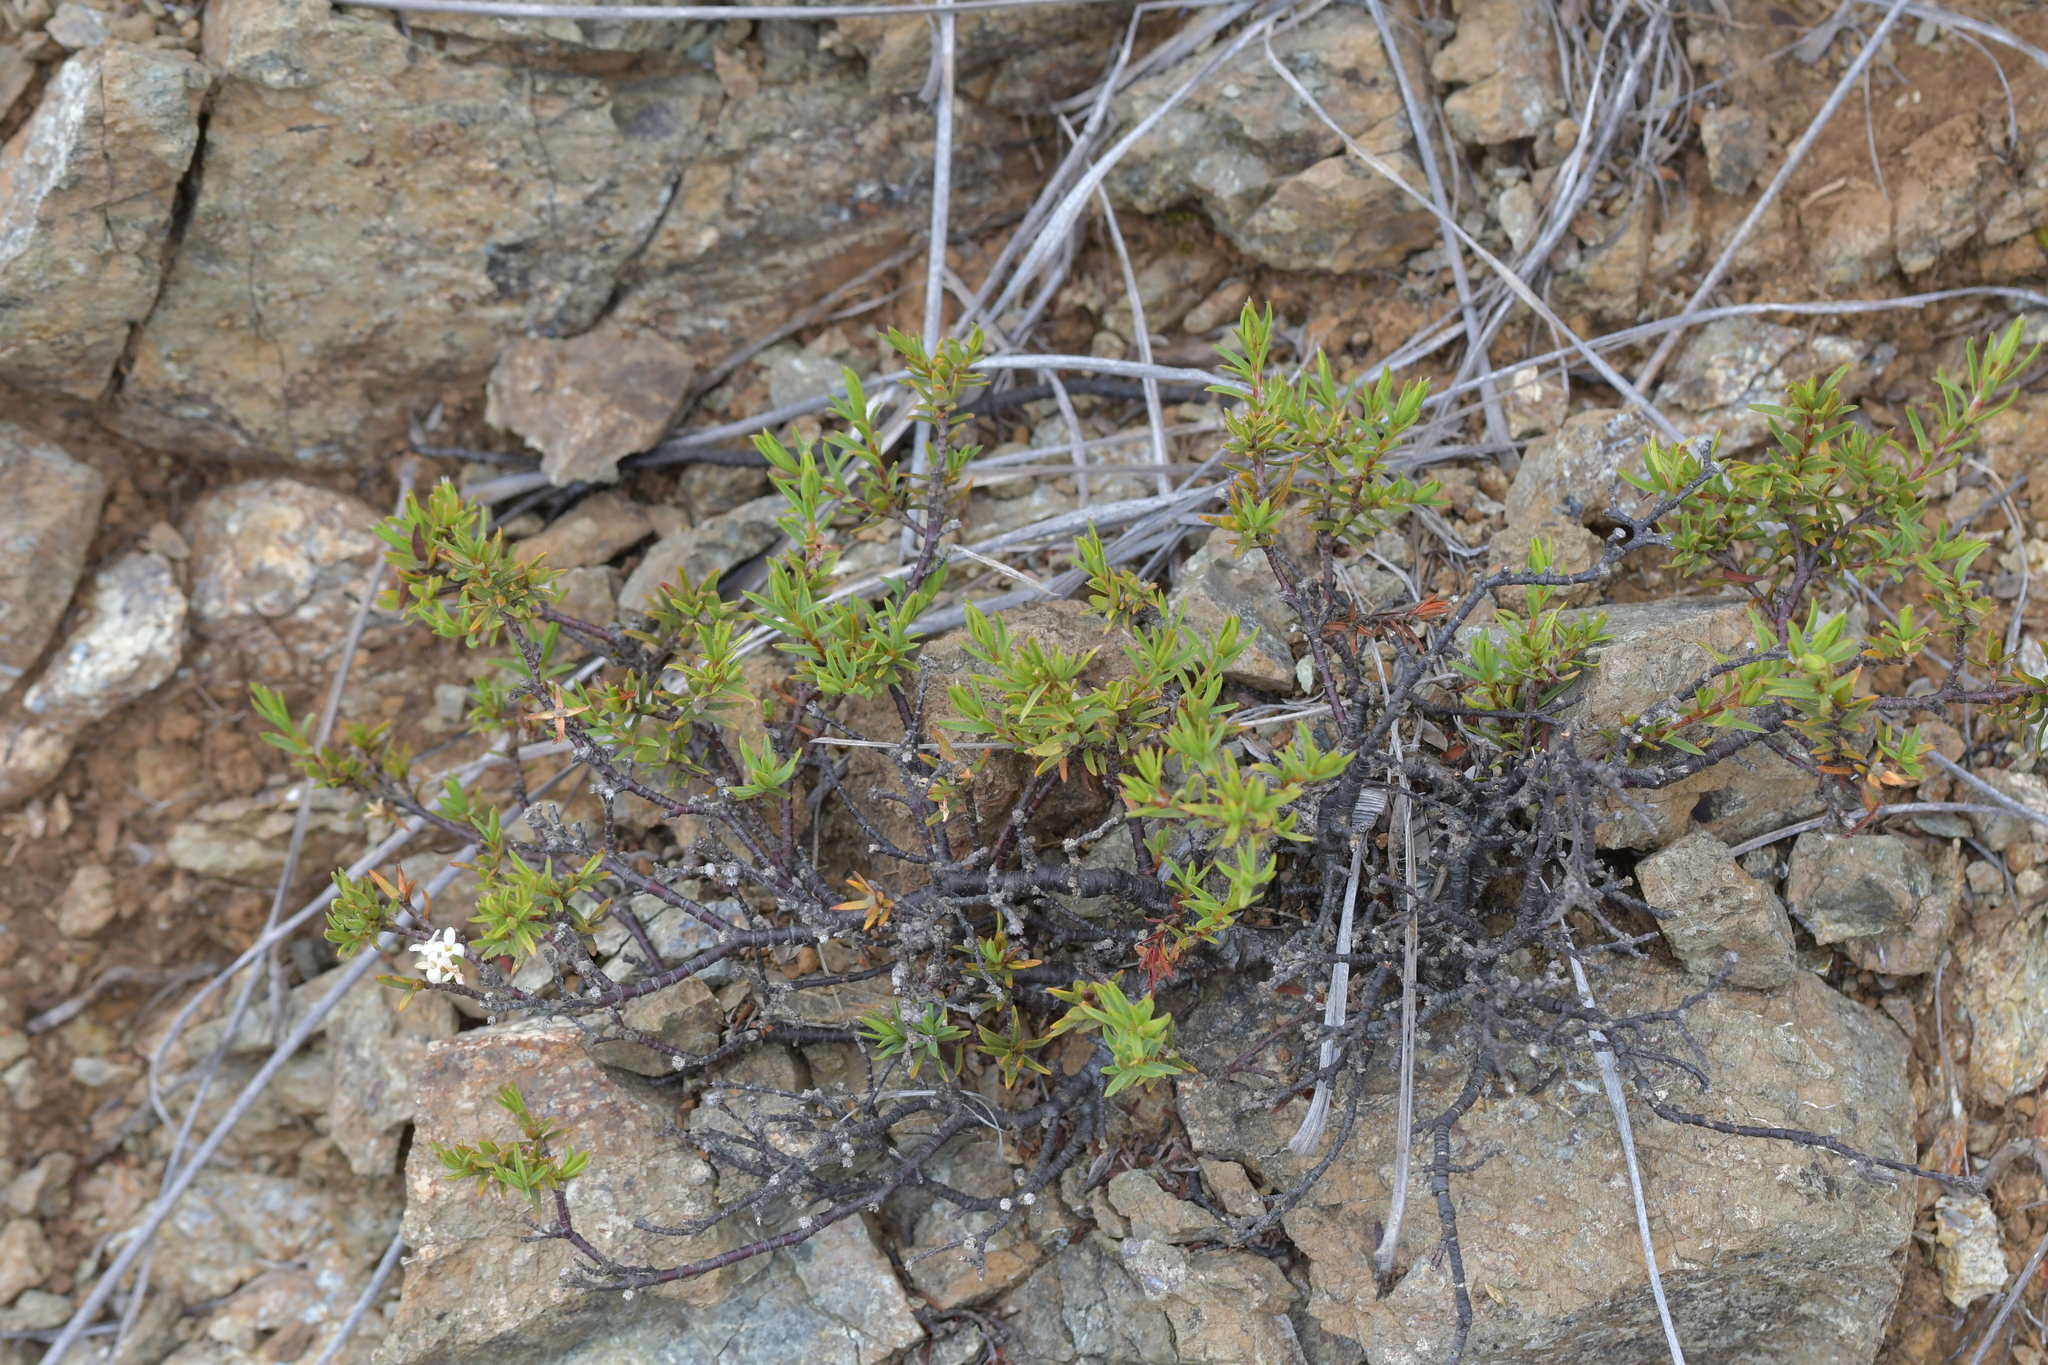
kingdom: Plantae
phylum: Tracheophyta
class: Magnoliopsida
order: Malvales
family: Thymelaeaceae
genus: Pimelea
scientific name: Pimelea suteri
